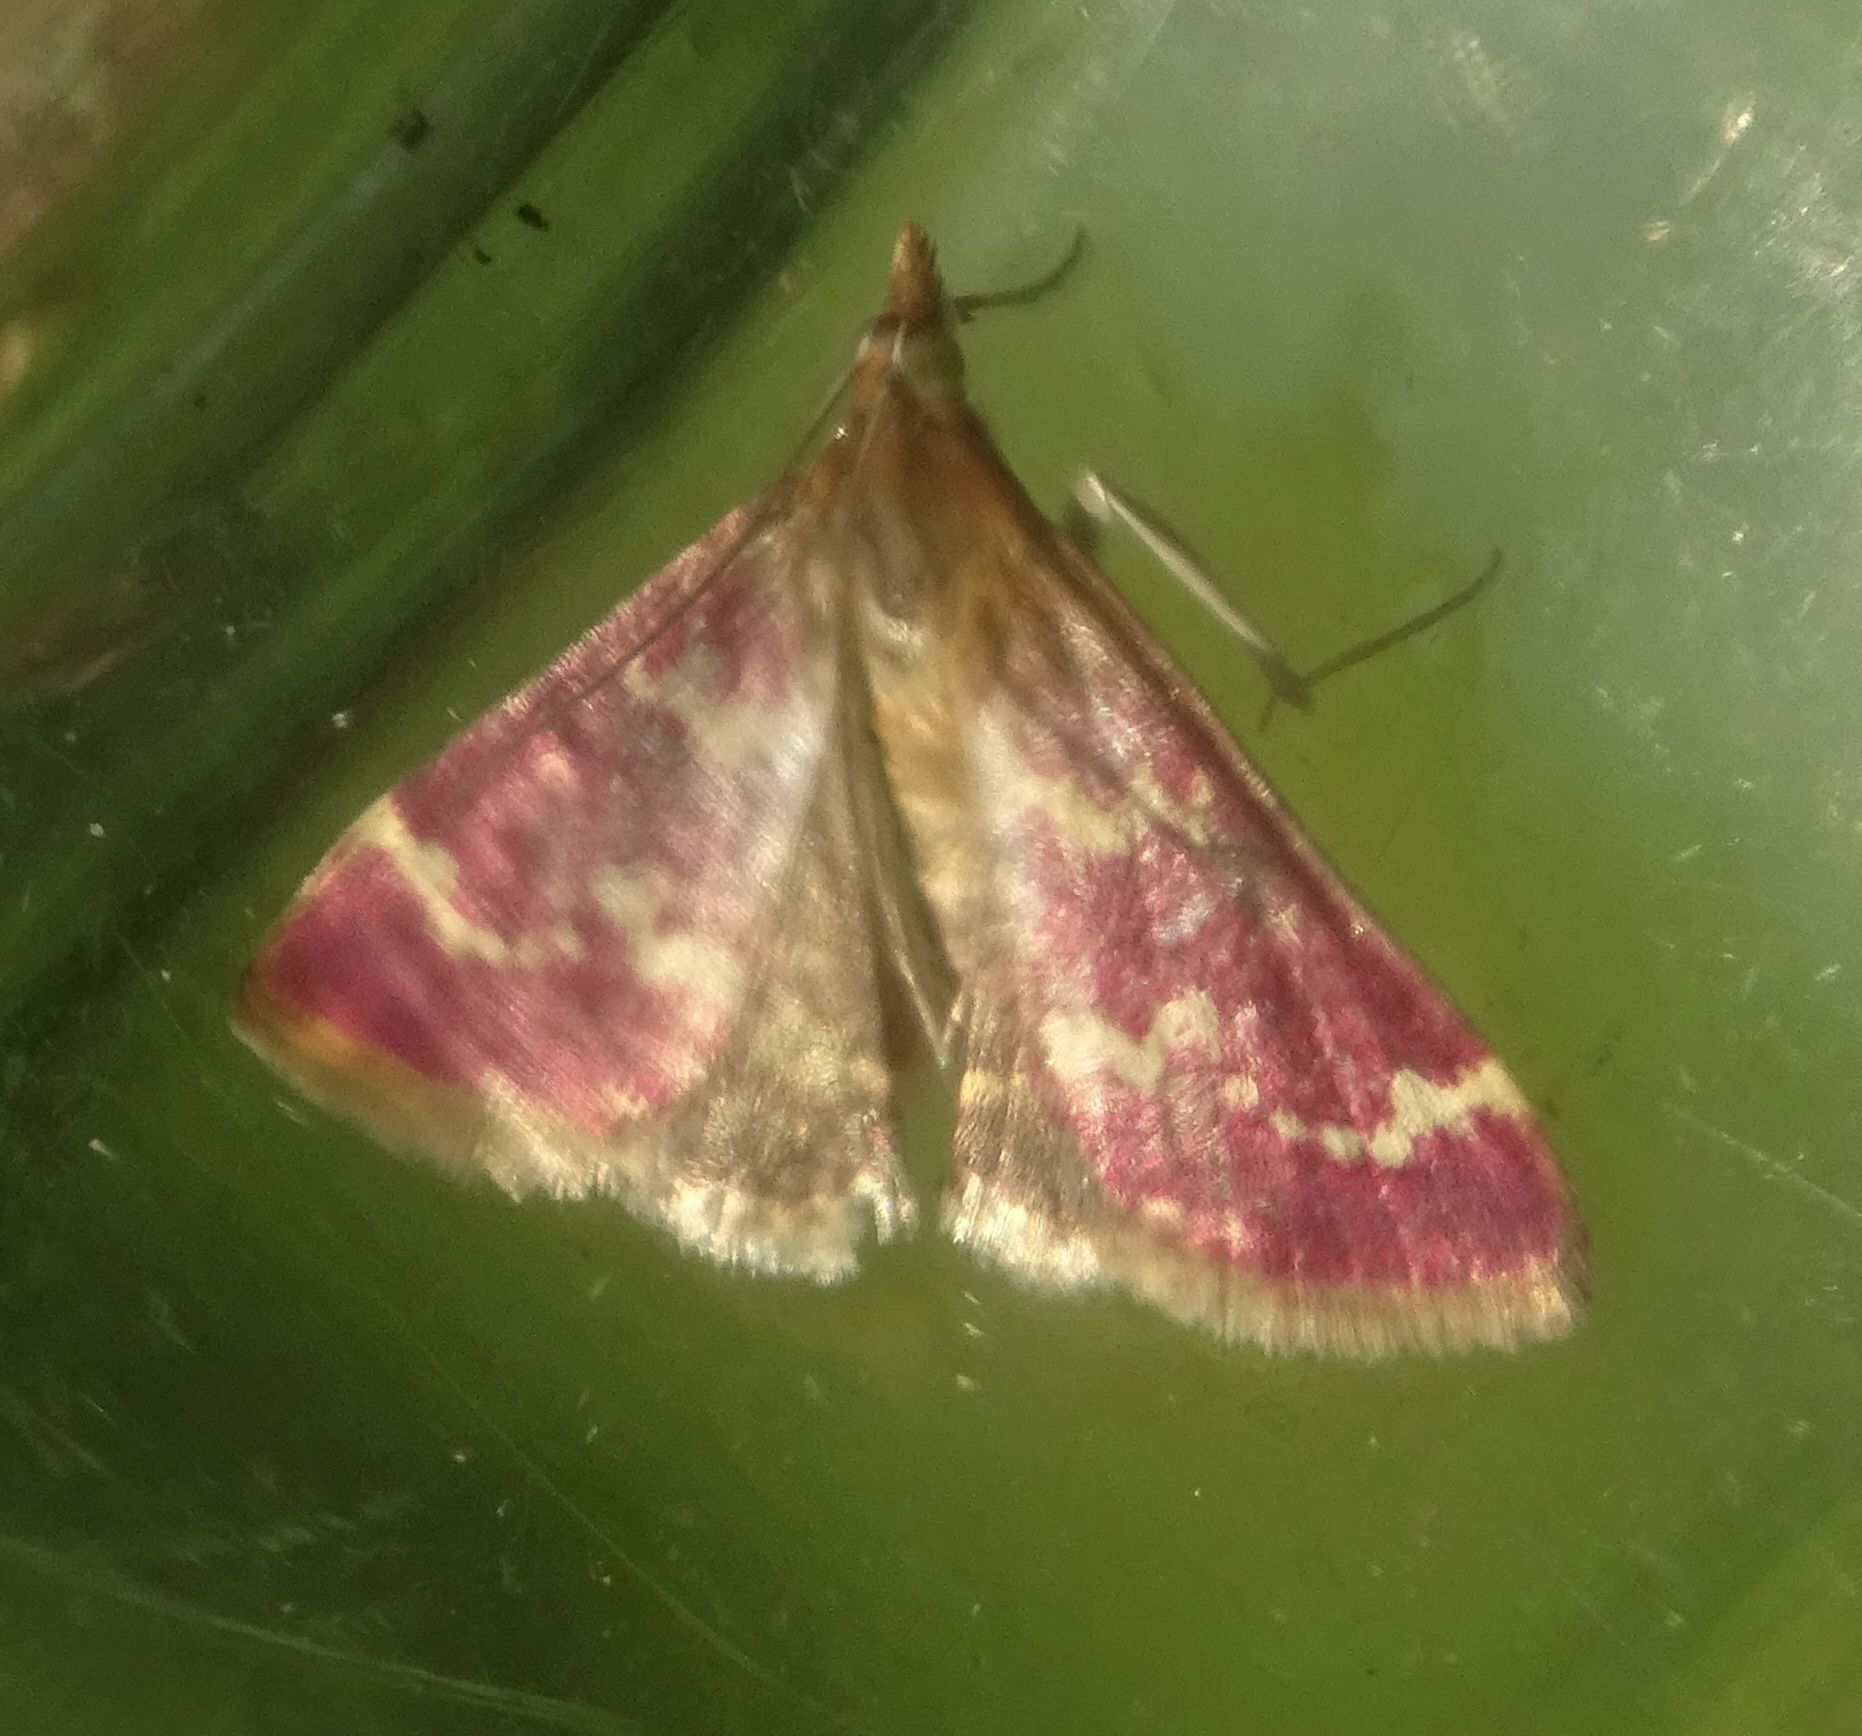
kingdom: Animalia
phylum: Arthropoda
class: Insecta
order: Lepidoptera
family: Crambidae
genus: Pyrausta
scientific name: Pyrausta signatalis
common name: Raspberry pyrausta moth
